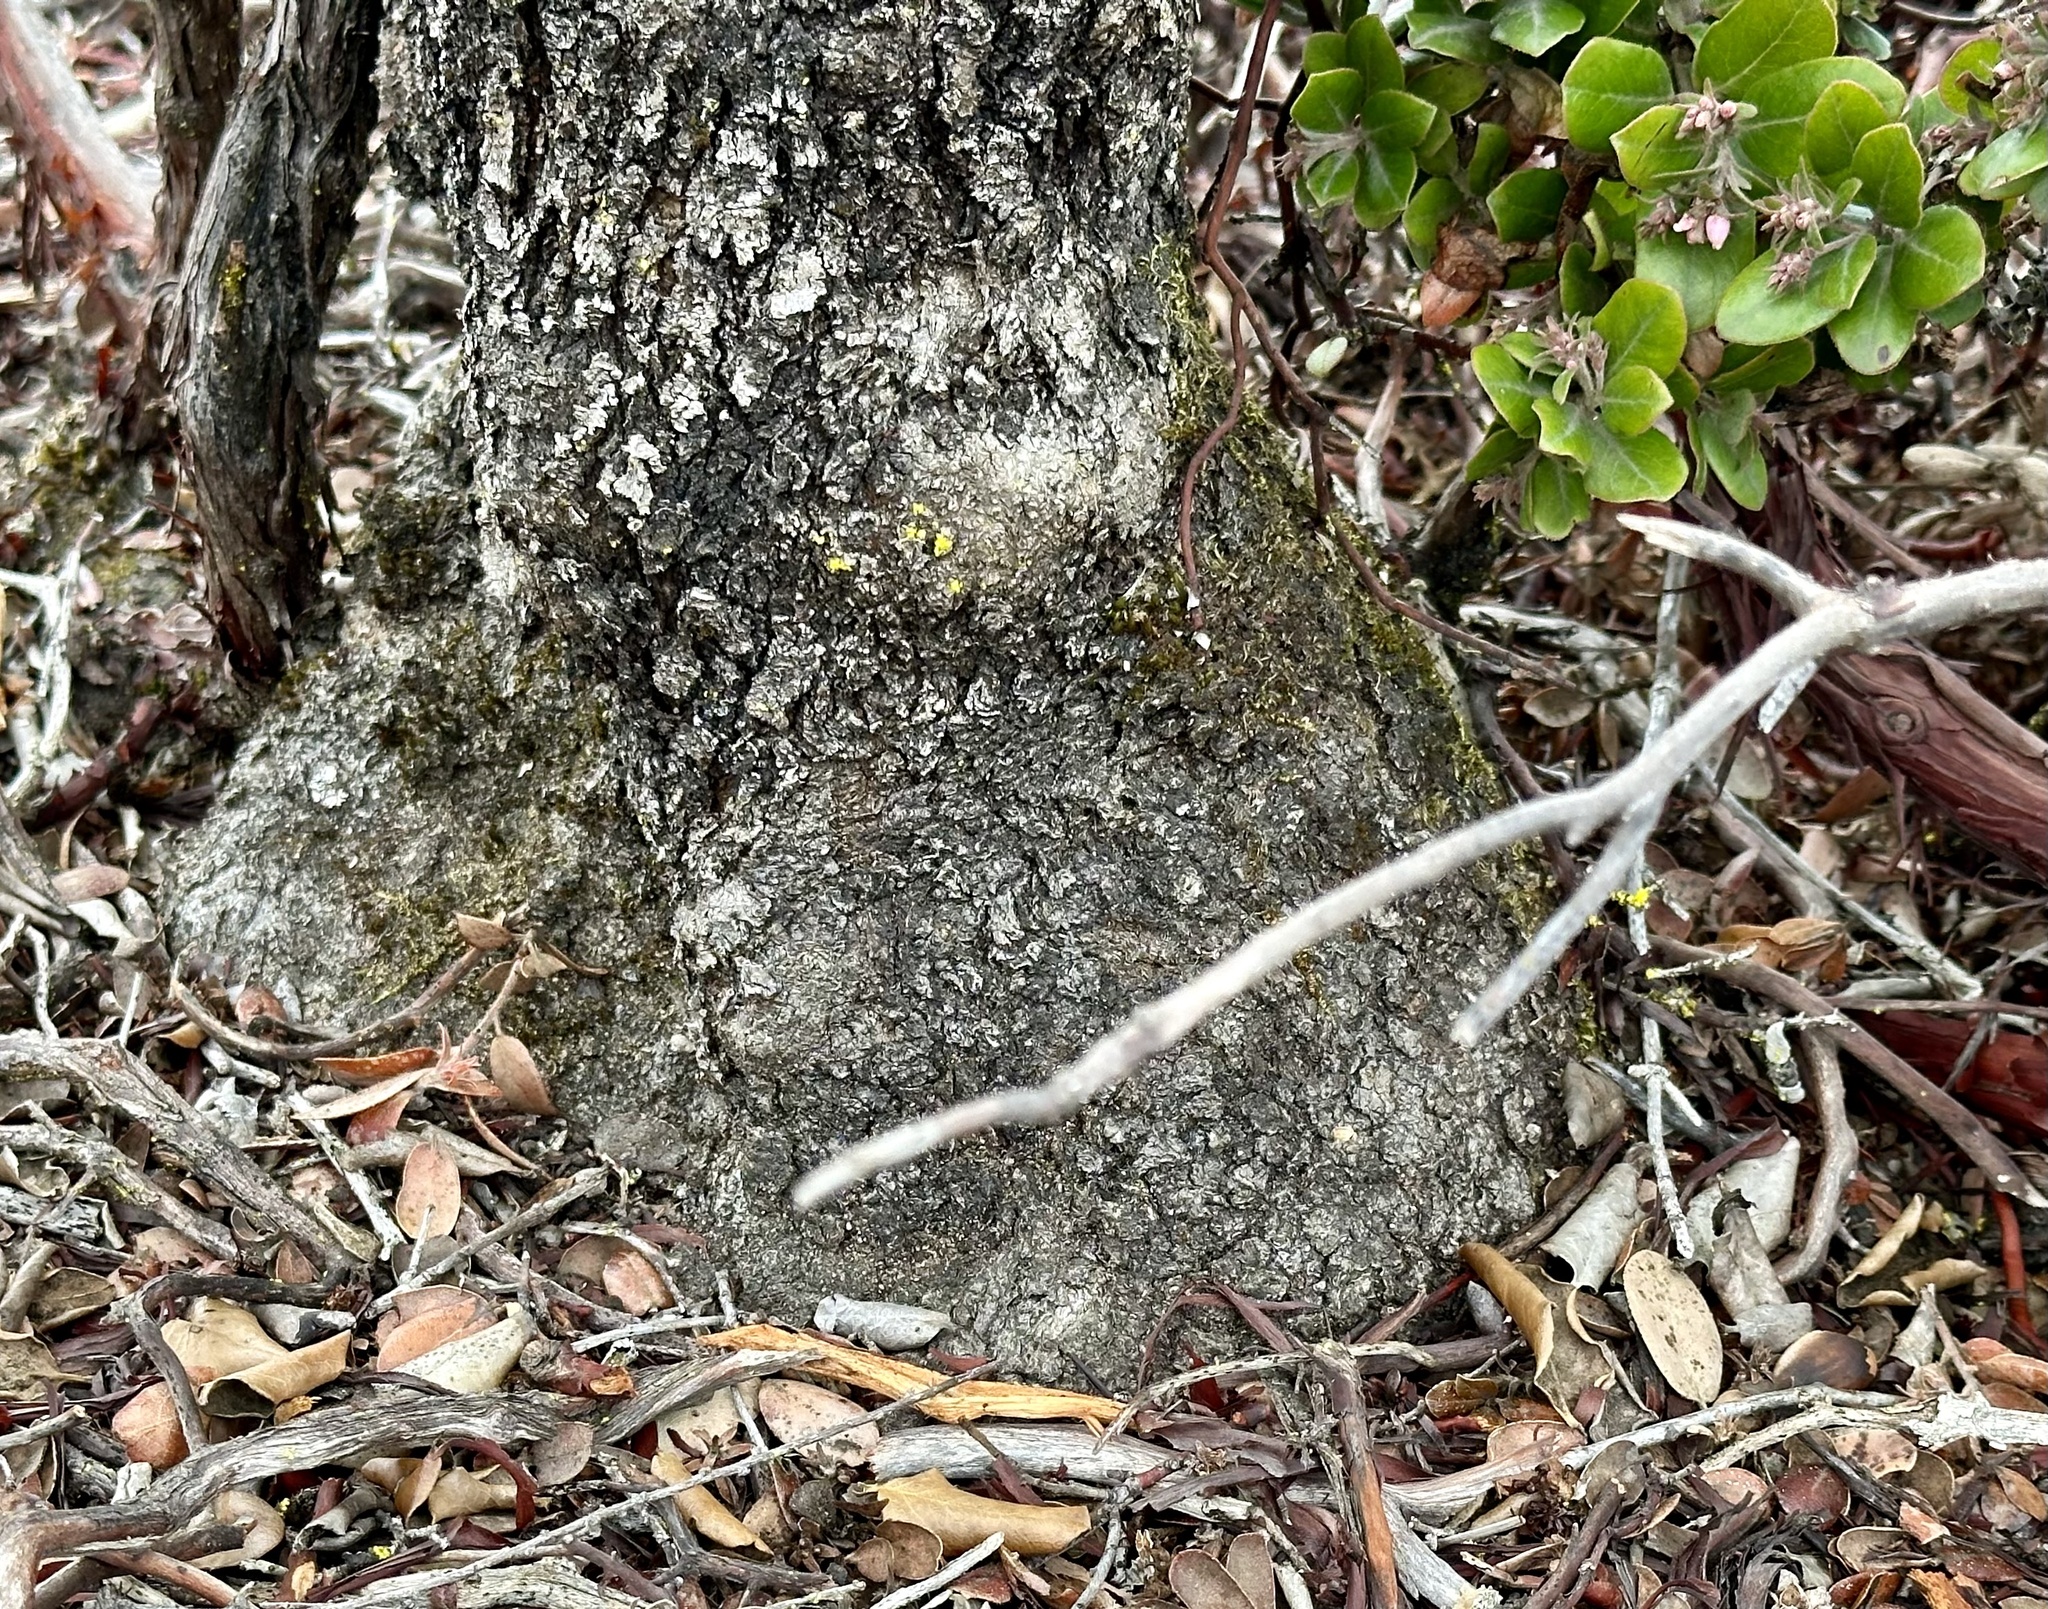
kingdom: Plantae
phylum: Tracheophyta
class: Magnoliopsida
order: Garryales
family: Garryaceae
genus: Garrya
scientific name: Garrya elliptica
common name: Silk-tassel
